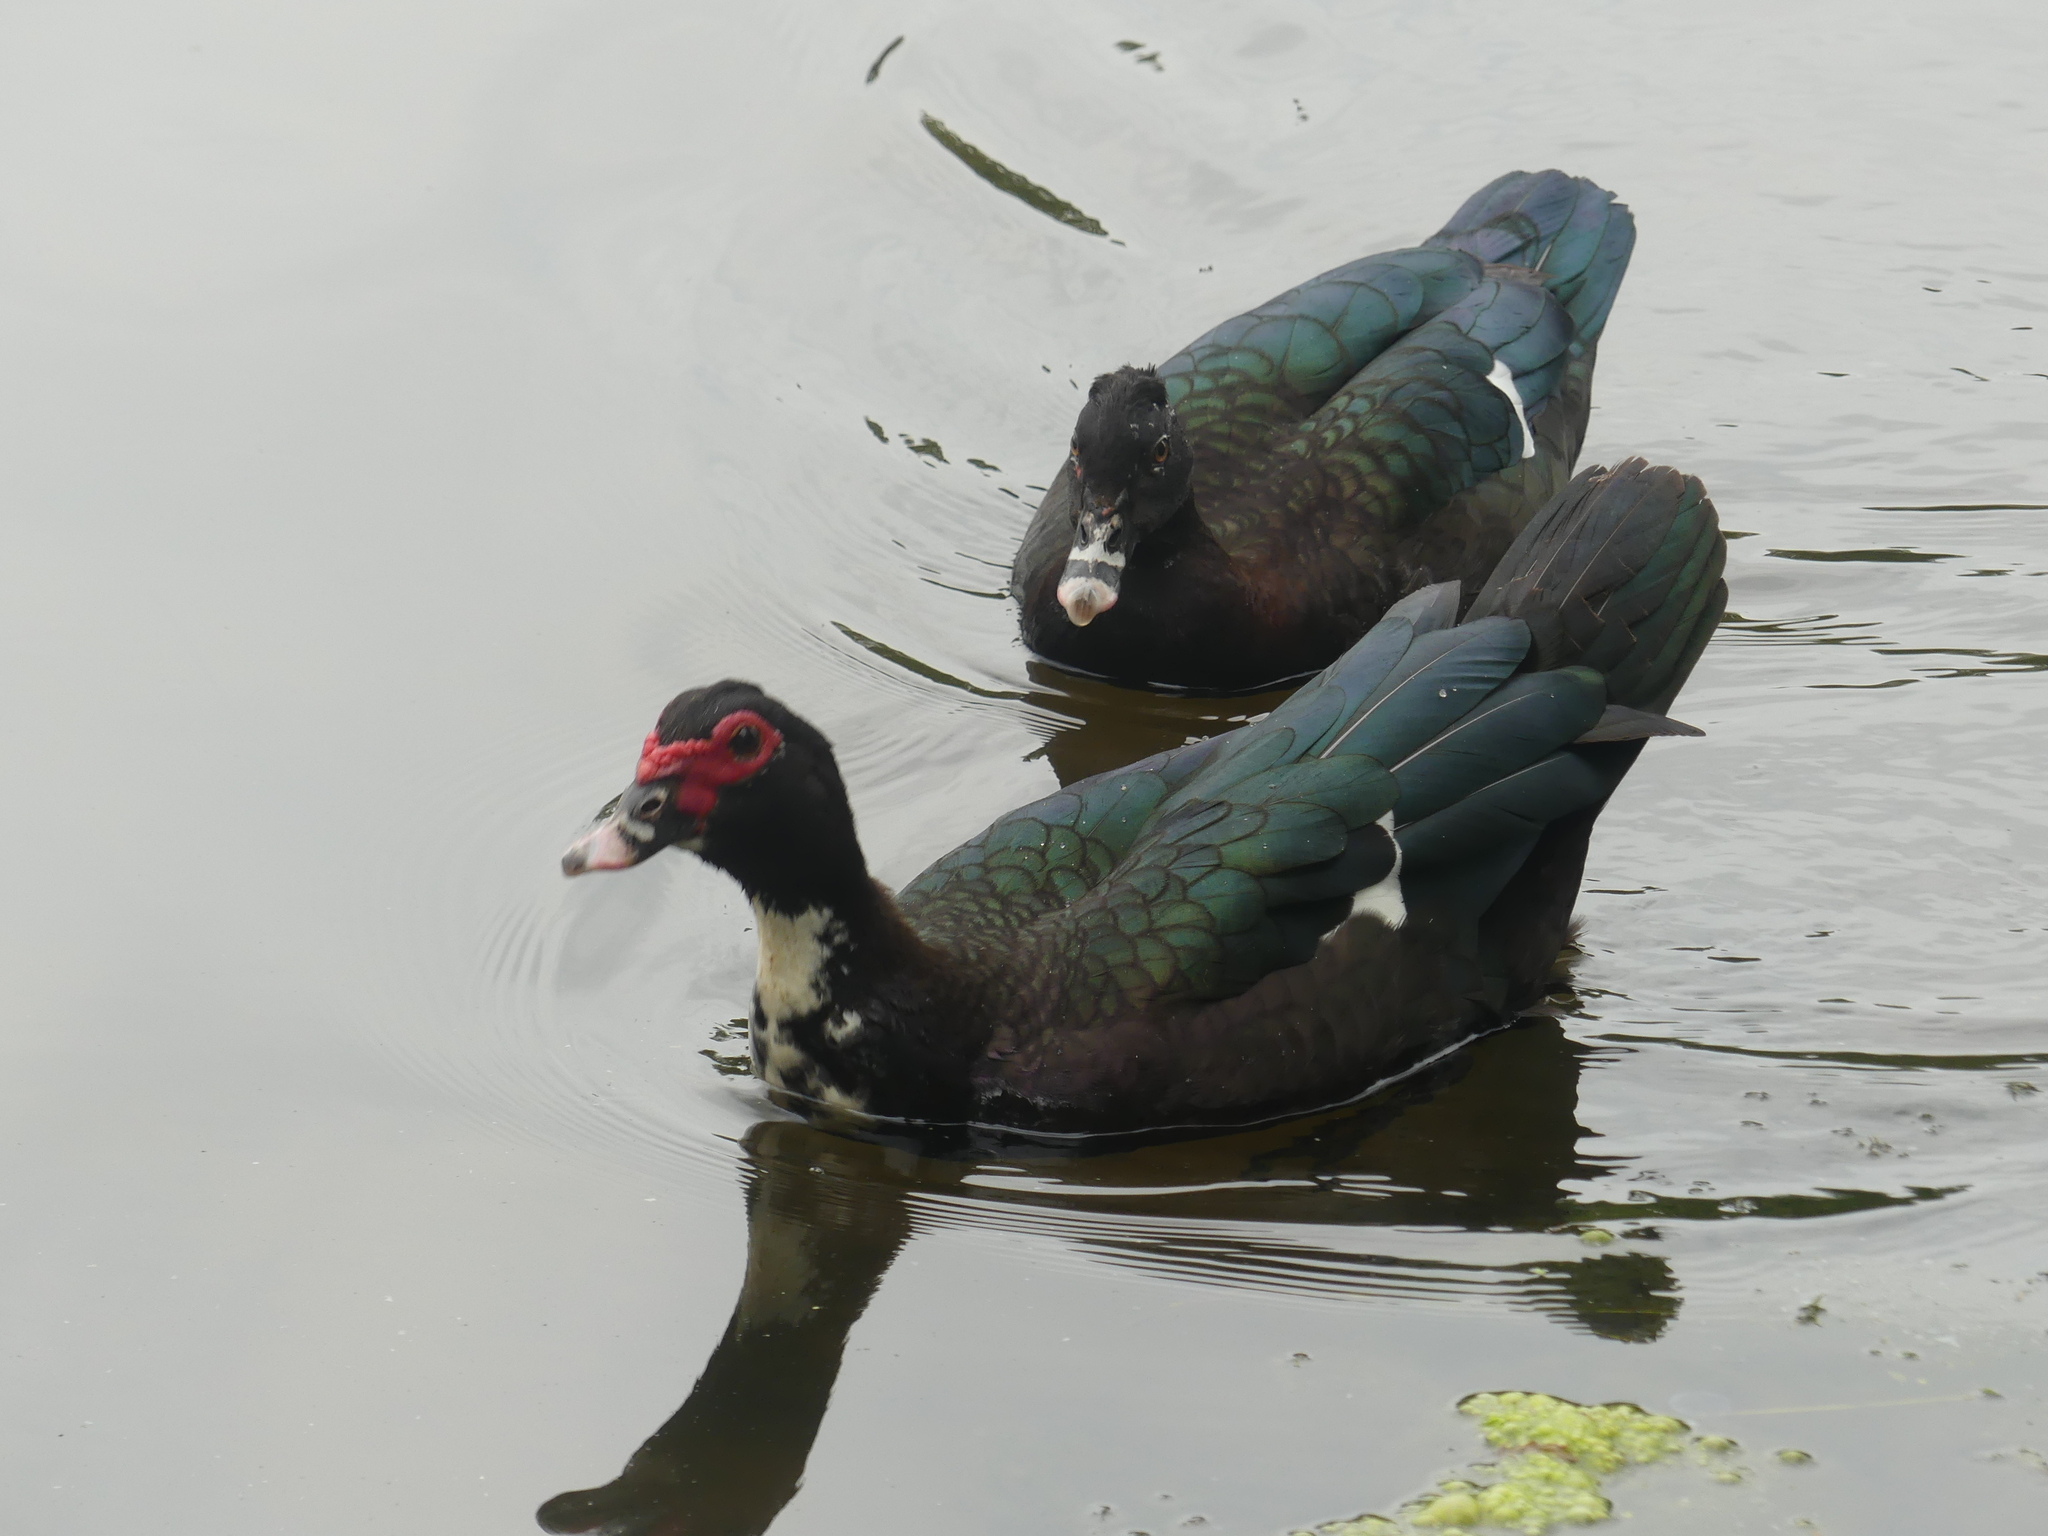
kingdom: Animalia
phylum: Chordata
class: Aves
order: Anseriformes
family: Anatidae
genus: Cairina
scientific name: Cairina moschata
